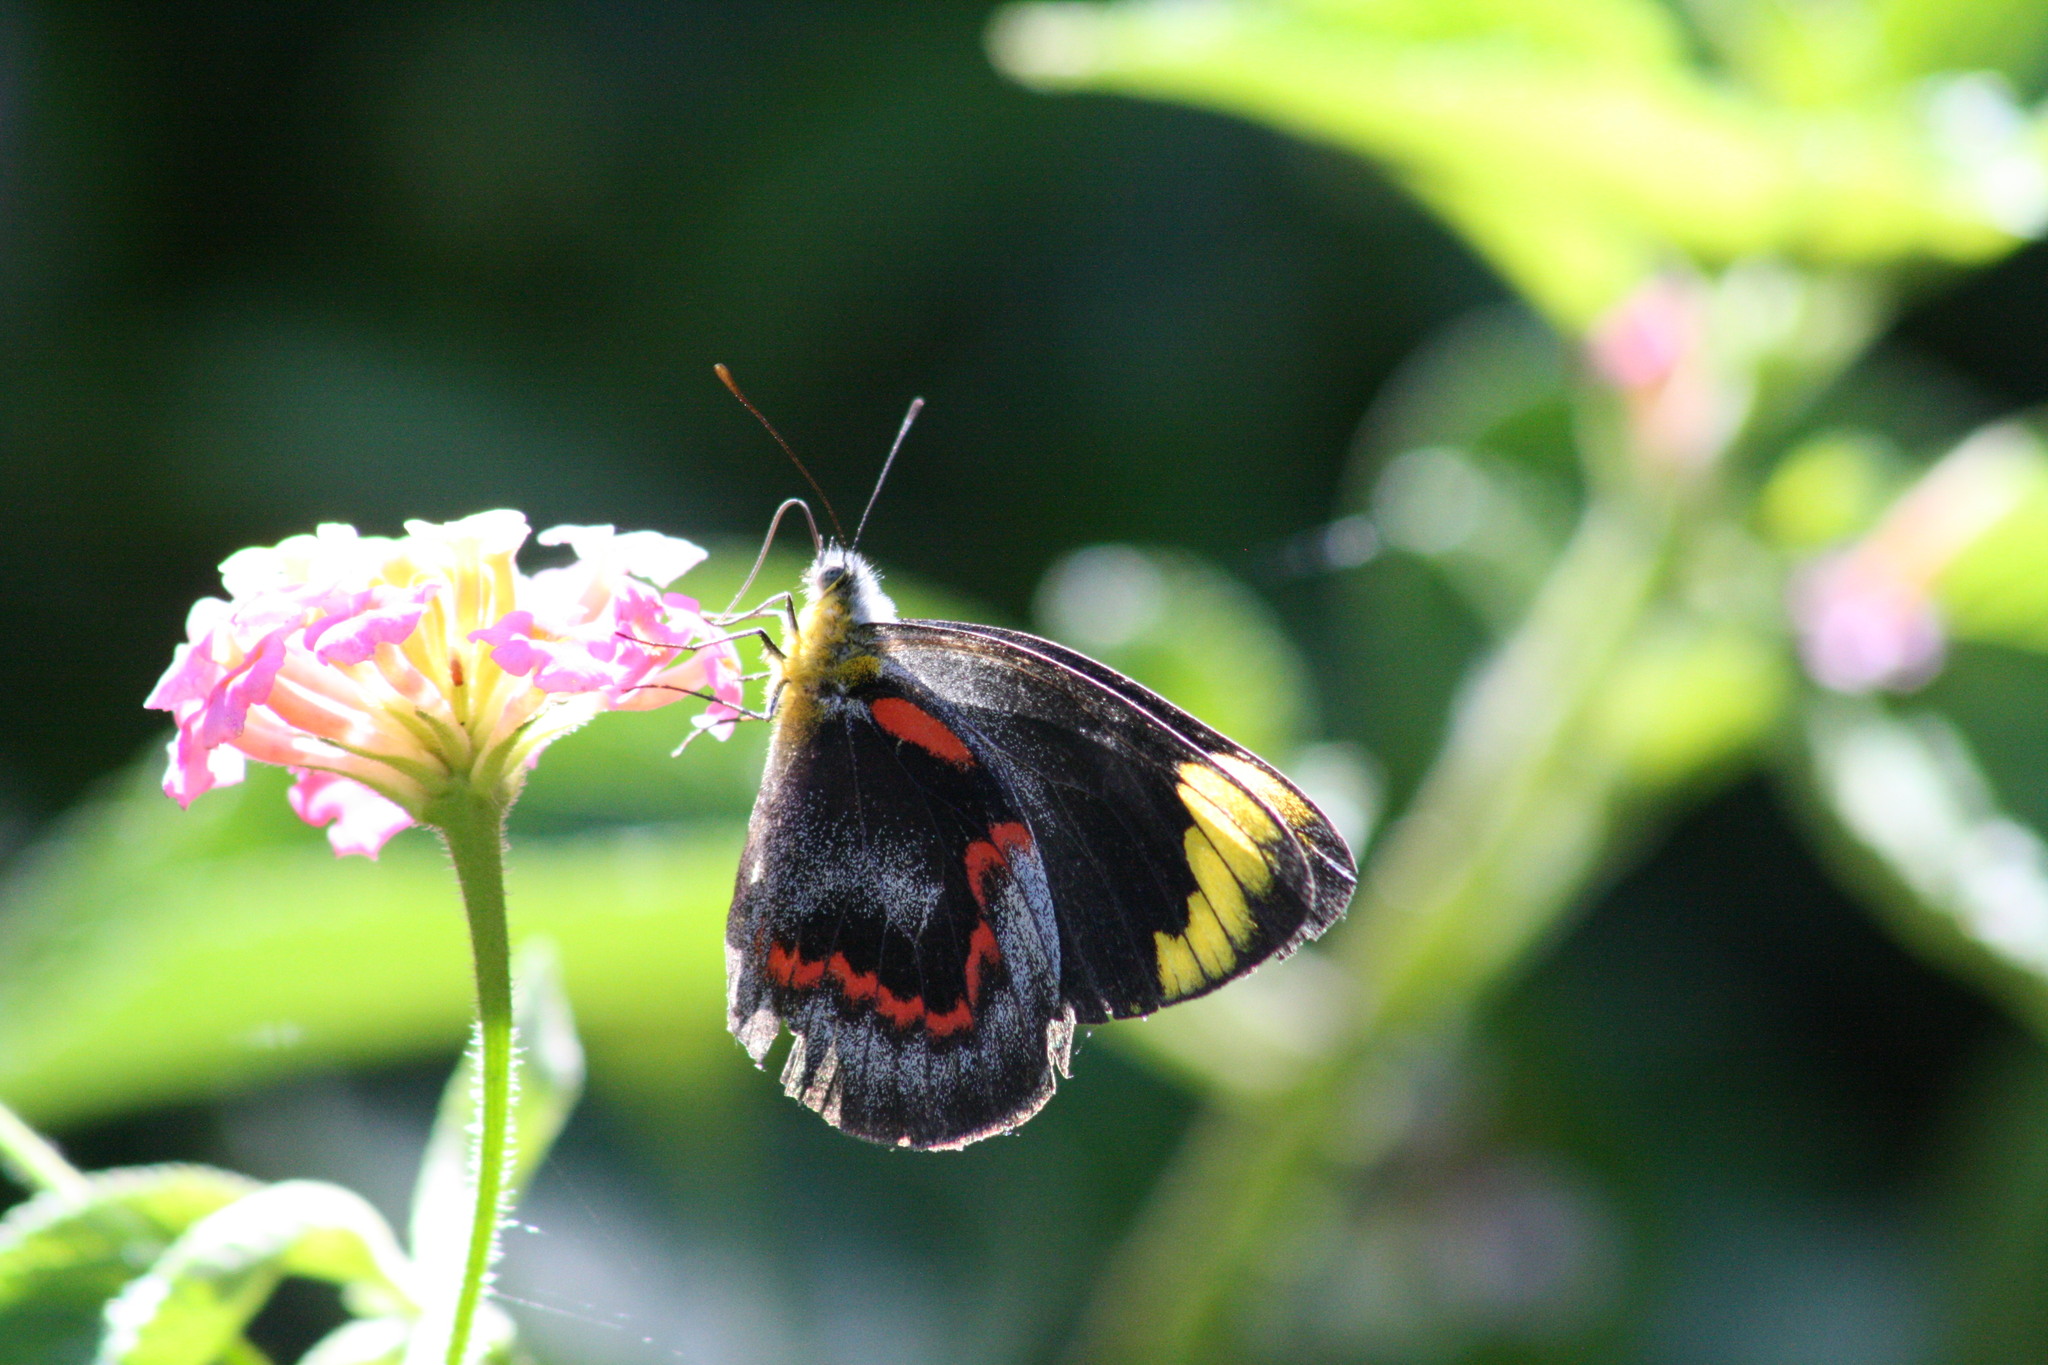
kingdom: Animalia
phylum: Arthropoda
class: Insecta
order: Lepidoptera
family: Pieridae
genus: Delias
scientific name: Delias nigrina
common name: Black jezebel
